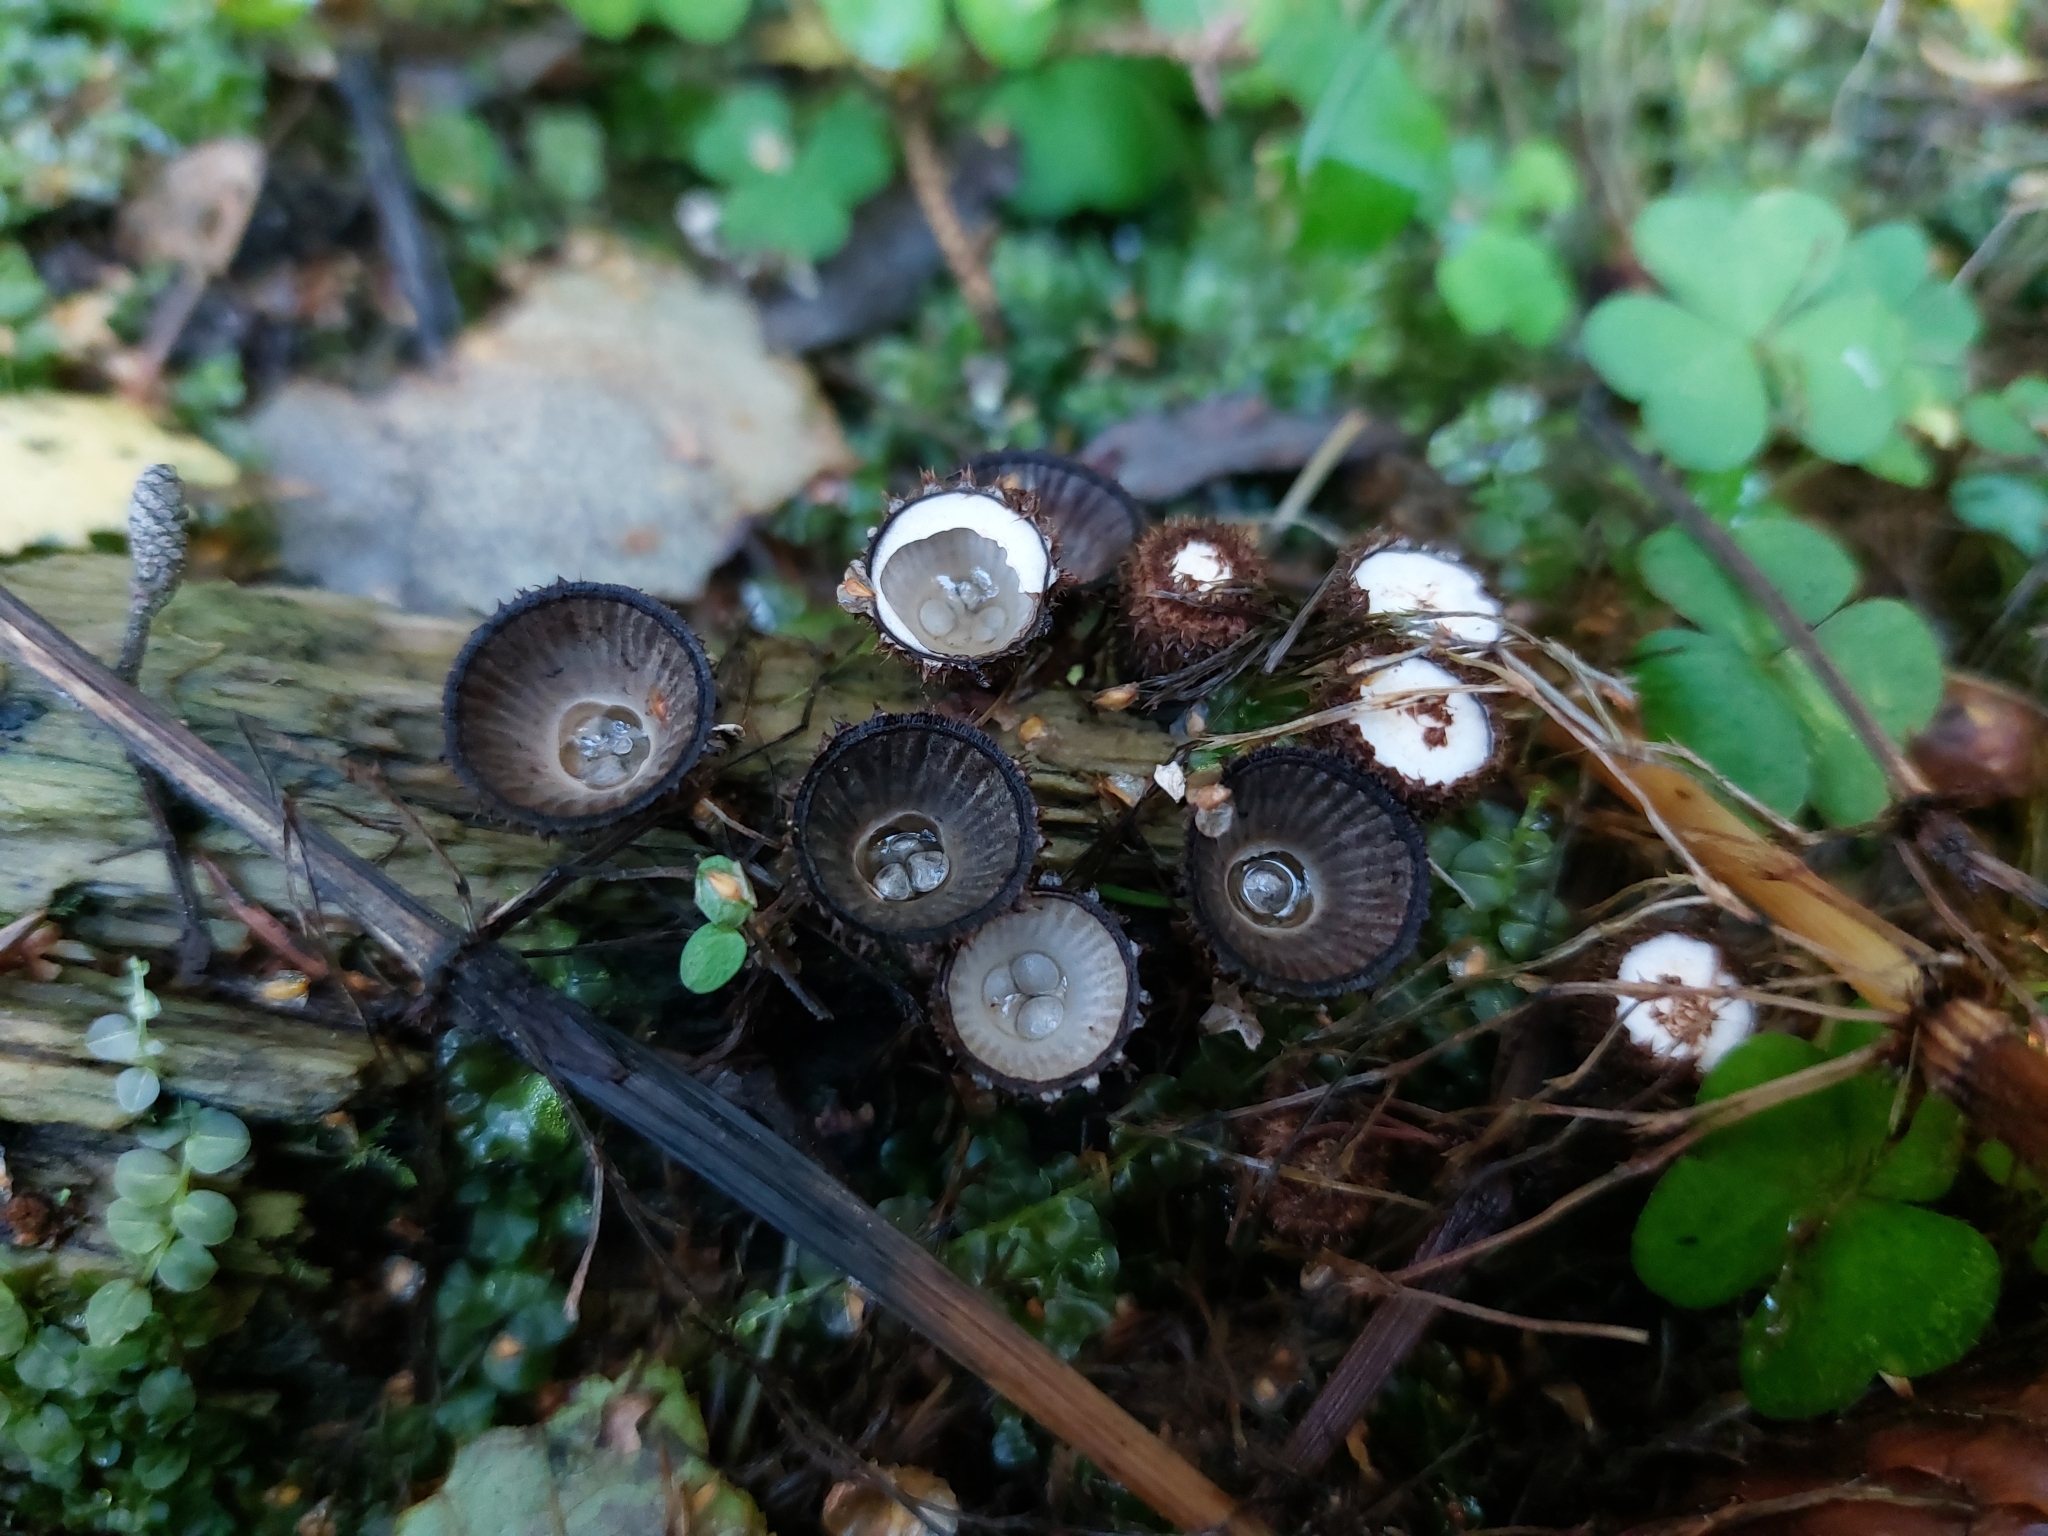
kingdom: Fungi
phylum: Basidiomycota
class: Agaricomycetes
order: Agaricales
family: Agaricaceae
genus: Cyathus
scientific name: Cyathus striatus
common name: Fluted bird's nest
